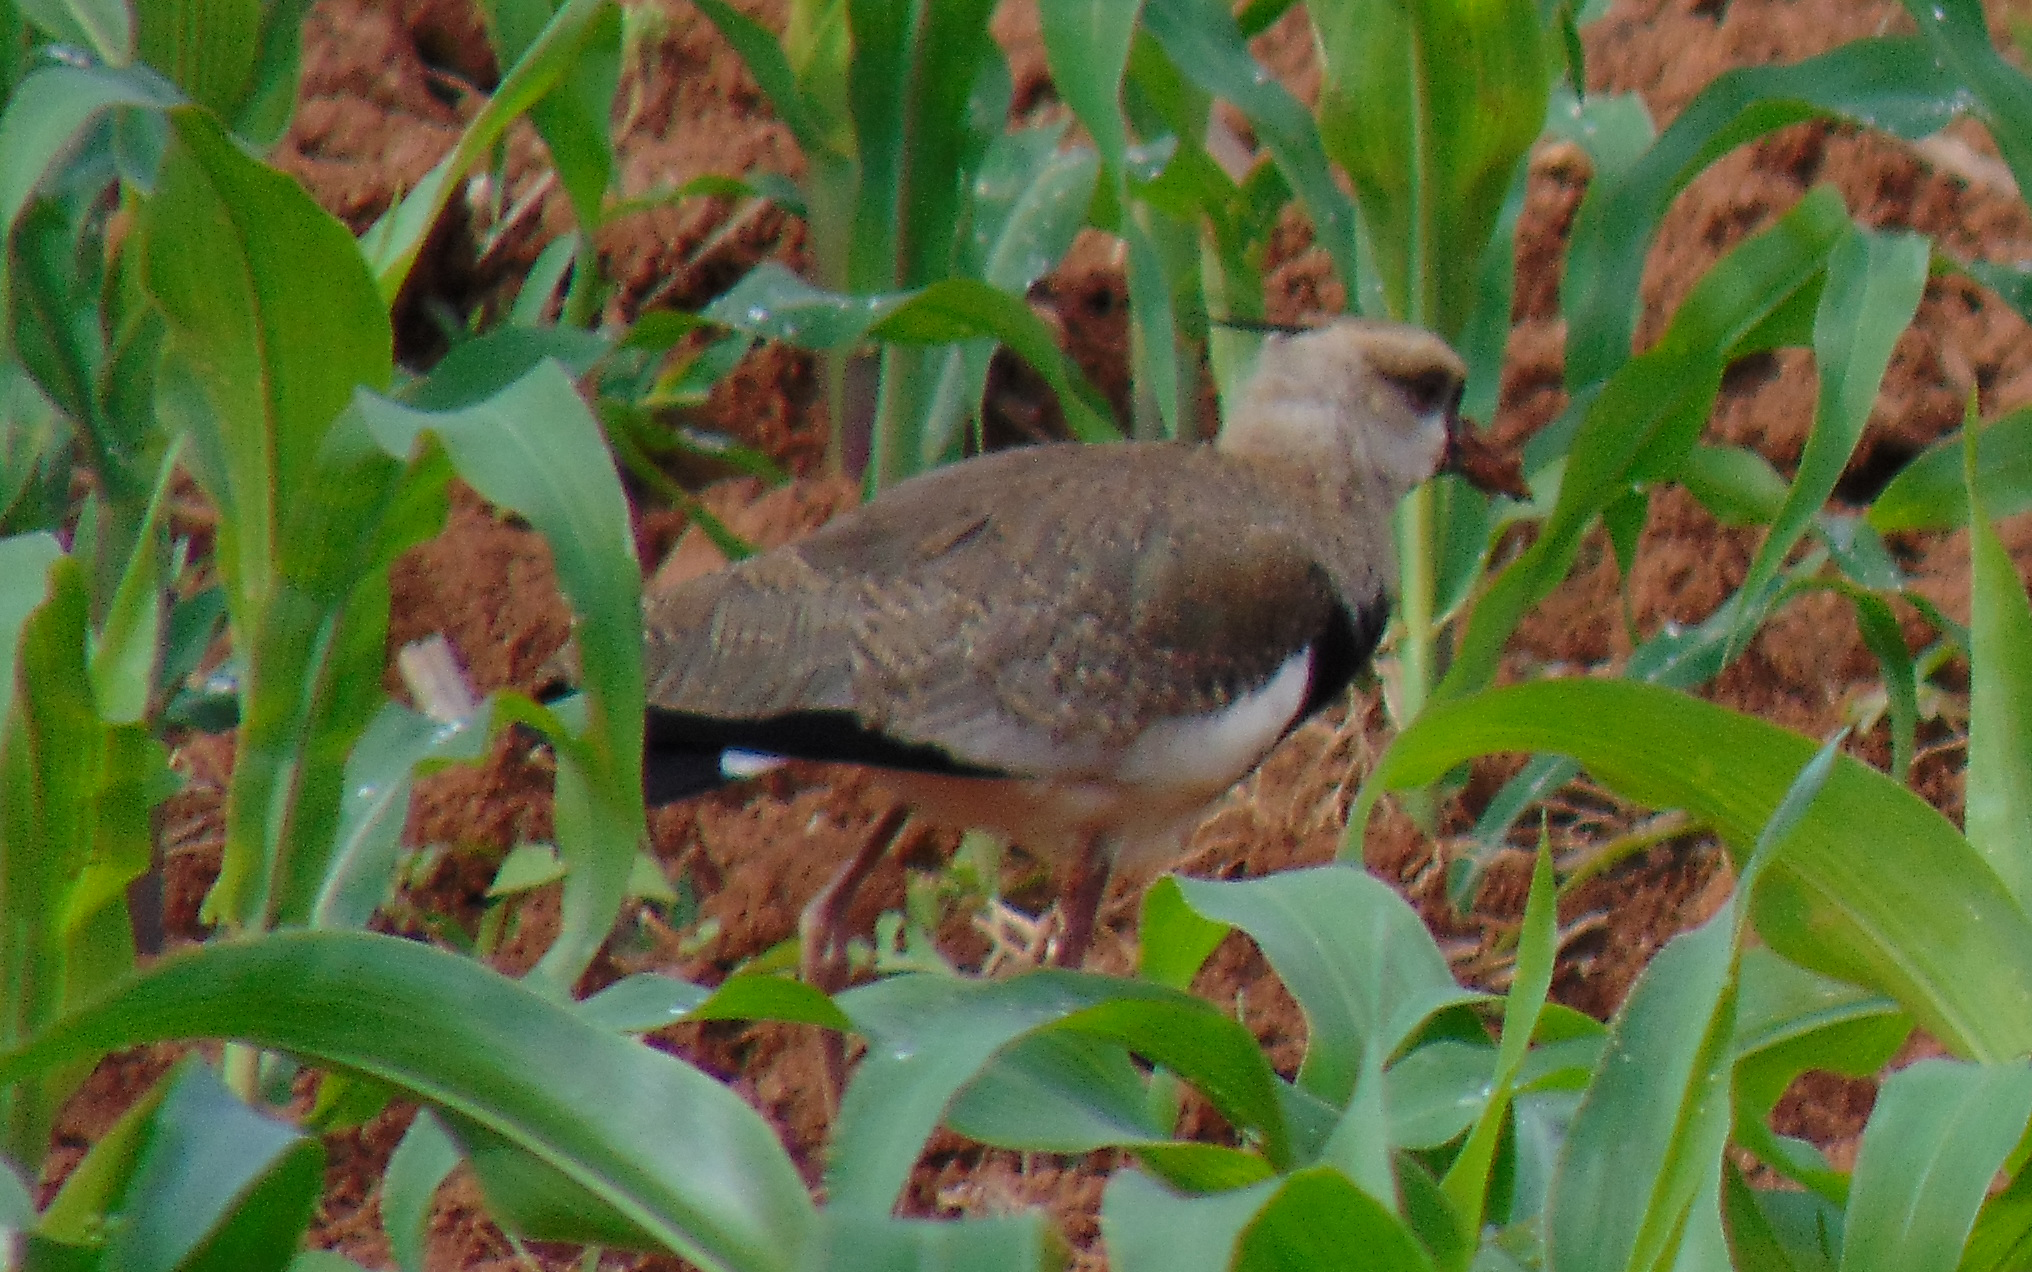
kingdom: Animalia
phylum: Chordata
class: Aves
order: Charadriiformes
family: Charadriidae
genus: Vanellus
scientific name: Vanellus chilensis
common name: Southern lapwing
